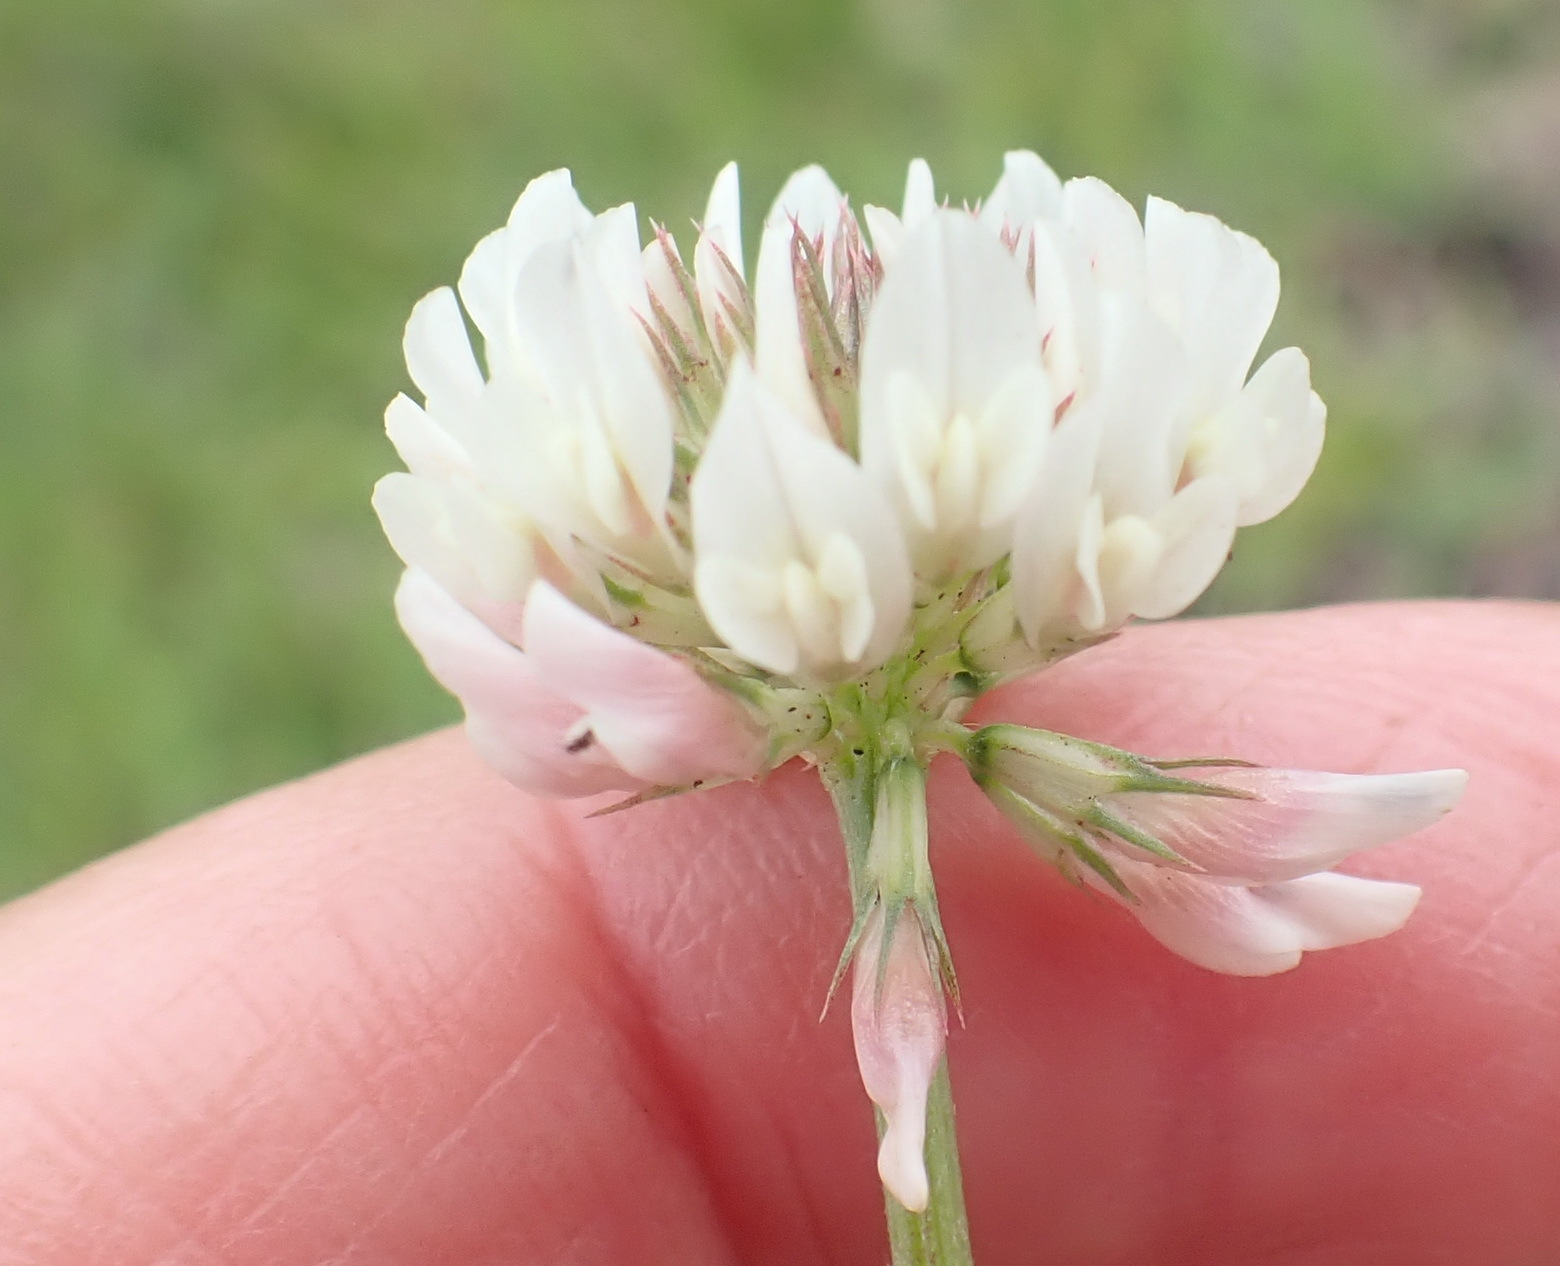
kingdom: Plantae
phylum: Tracheophyta
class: Magnoliopsida
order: Fabales
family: Fabaceae
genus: Trifolium
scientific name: Trifolium repens
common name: White clover
